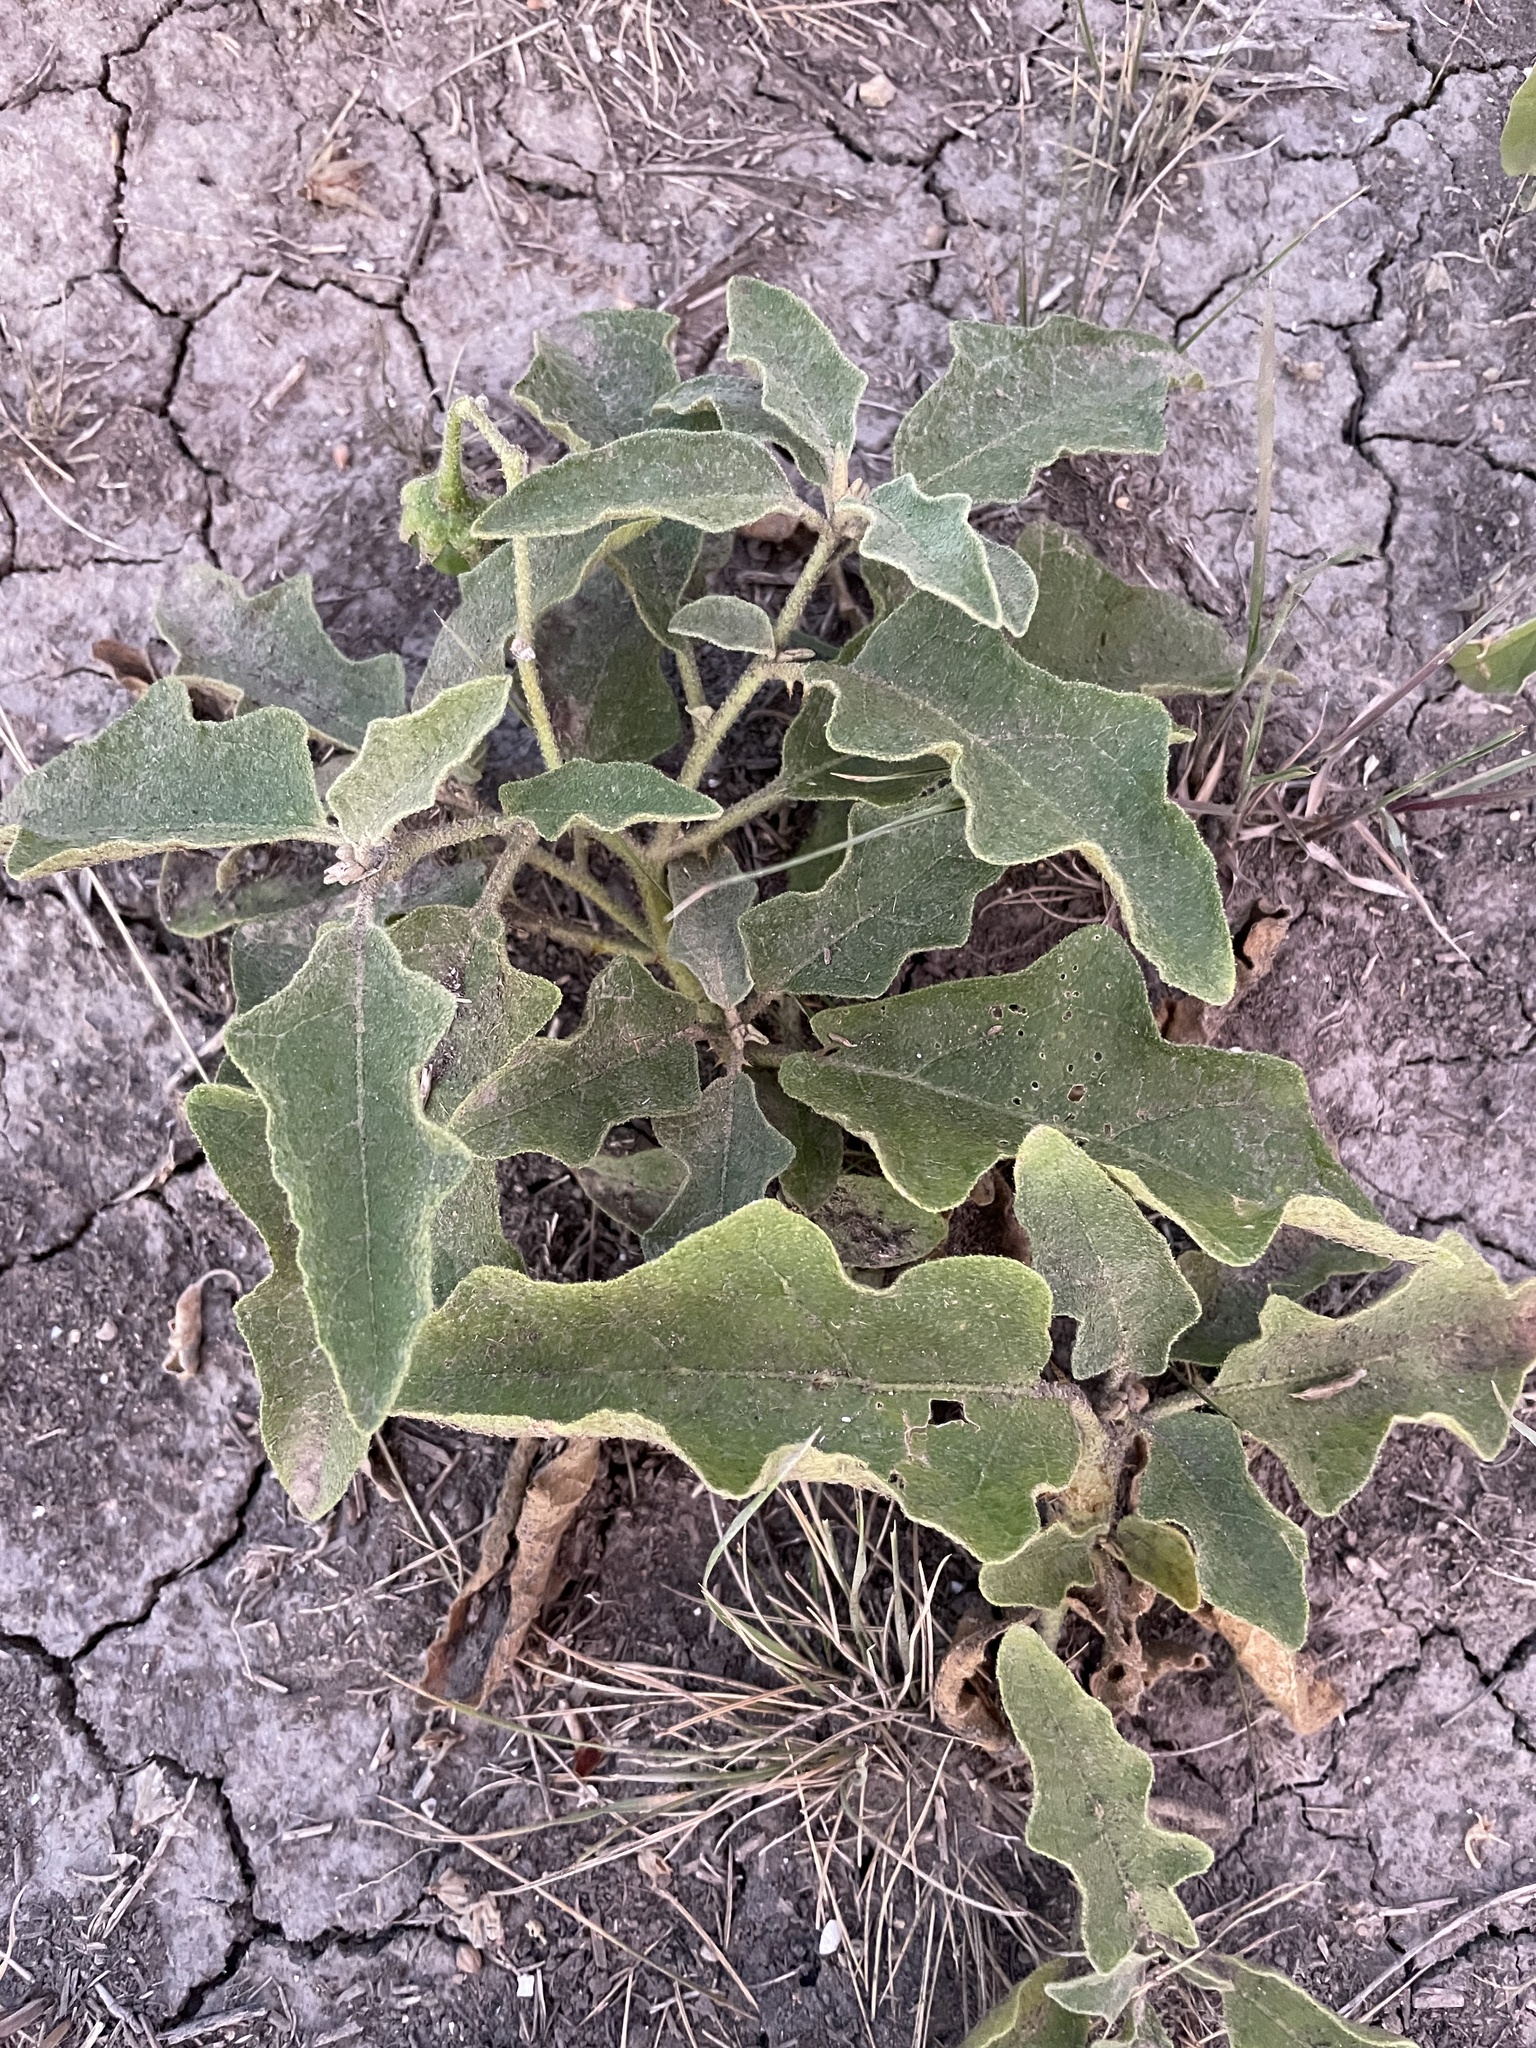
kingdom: Plantae
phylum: Tracheophyta
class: Magnoliopsida
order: Solanales
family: Solanaceae
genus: Solanum
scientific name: Solanum dimidiatum
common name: Carolina horse-nettle
